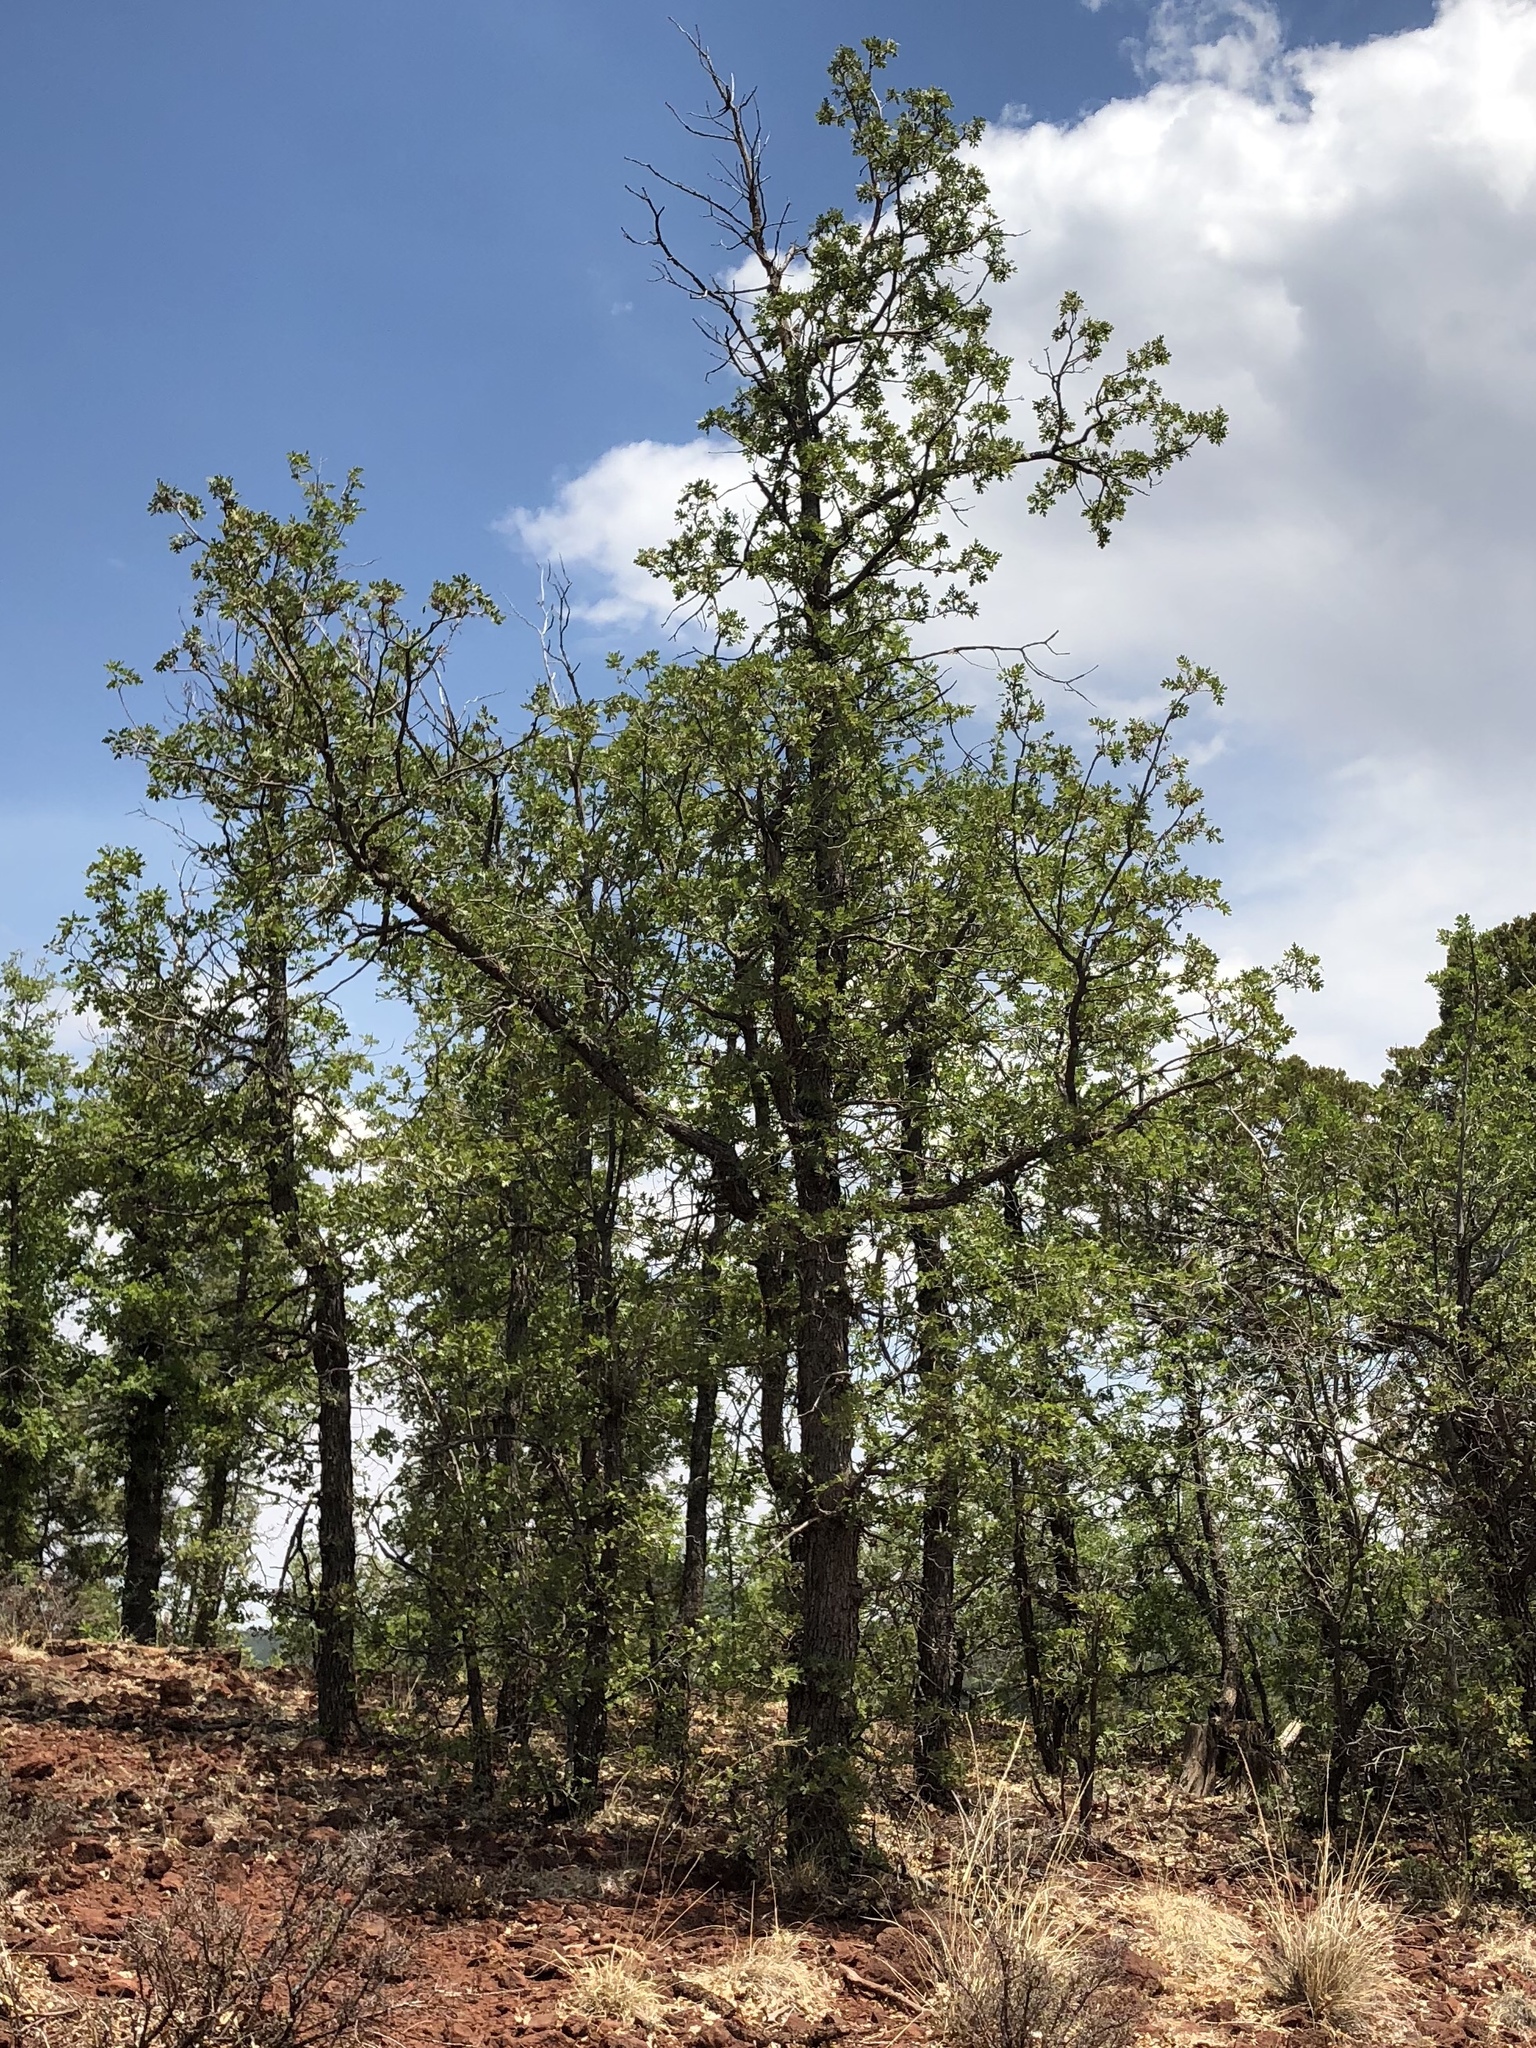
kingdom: Plantae
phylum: Tracheophyta
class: Pinopsida
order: Pinales
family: Cupressaceae
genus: Juniperus
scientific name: Juniperus deppeana
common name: Alligator juniper
